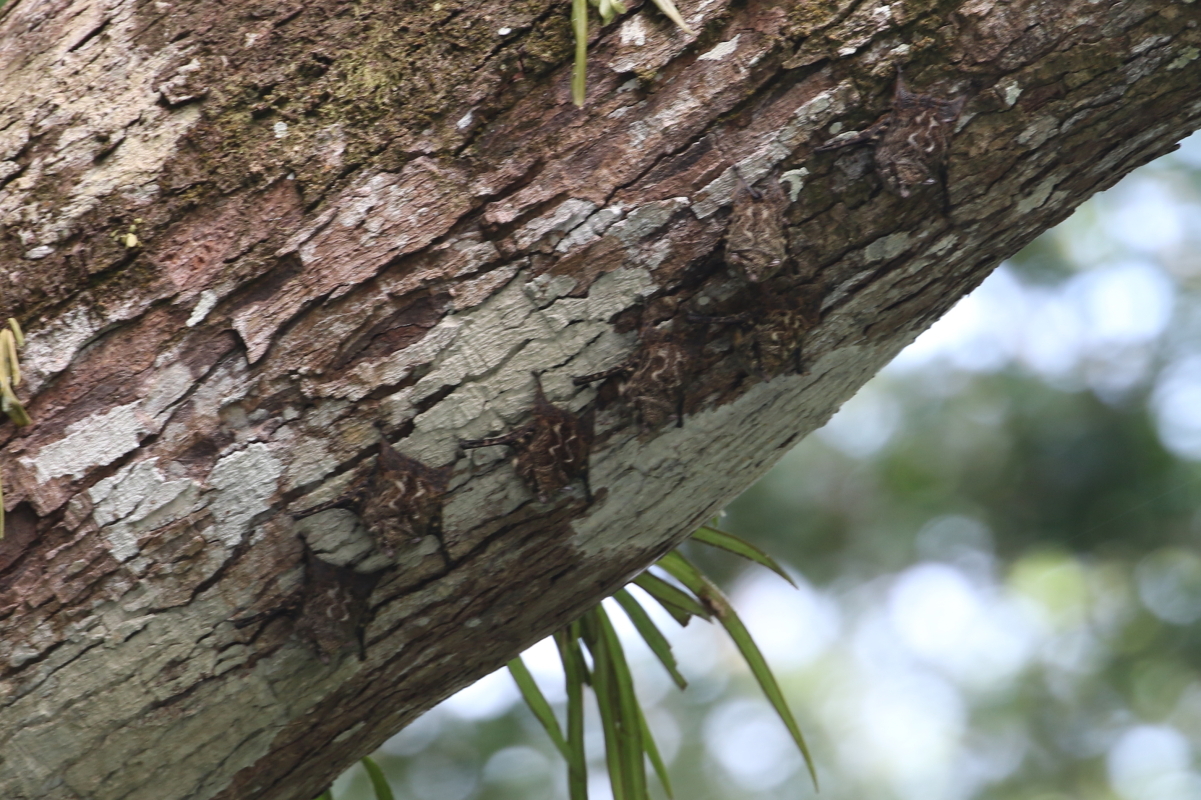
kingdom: Animalia
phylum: Chordata
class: Mammalia
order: Chiroptera
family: Emballonuridae
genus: Rhynchonycteris
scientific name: Rhynchonycteris naso
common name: Proboscis bat
